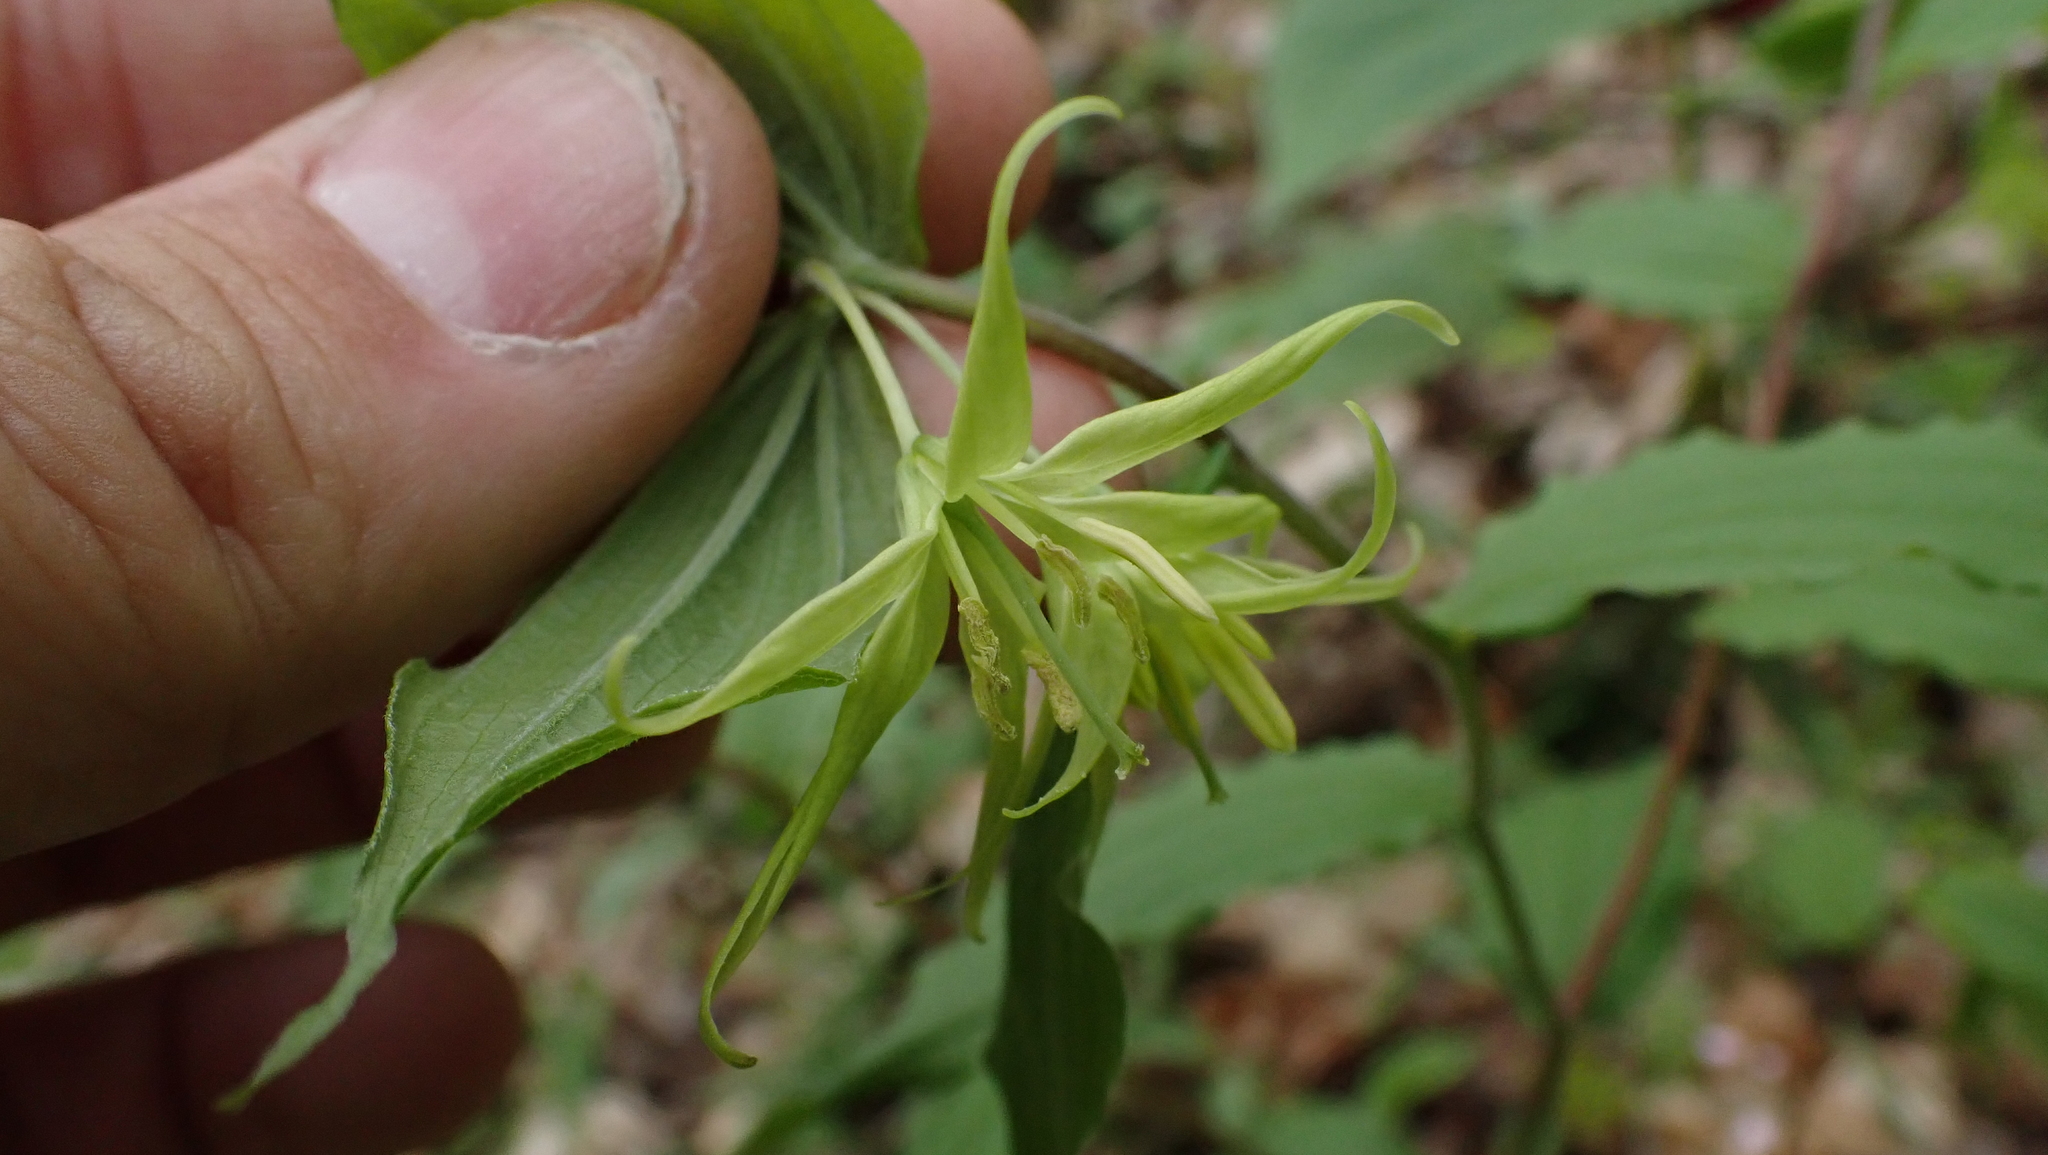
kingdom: Plantae
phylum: Tracheophyta
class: Liliopsida
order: Liliales
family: Liliaceae
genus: Prosartes
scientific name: Prosartes lanuginosa
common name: Hairy mandarin
